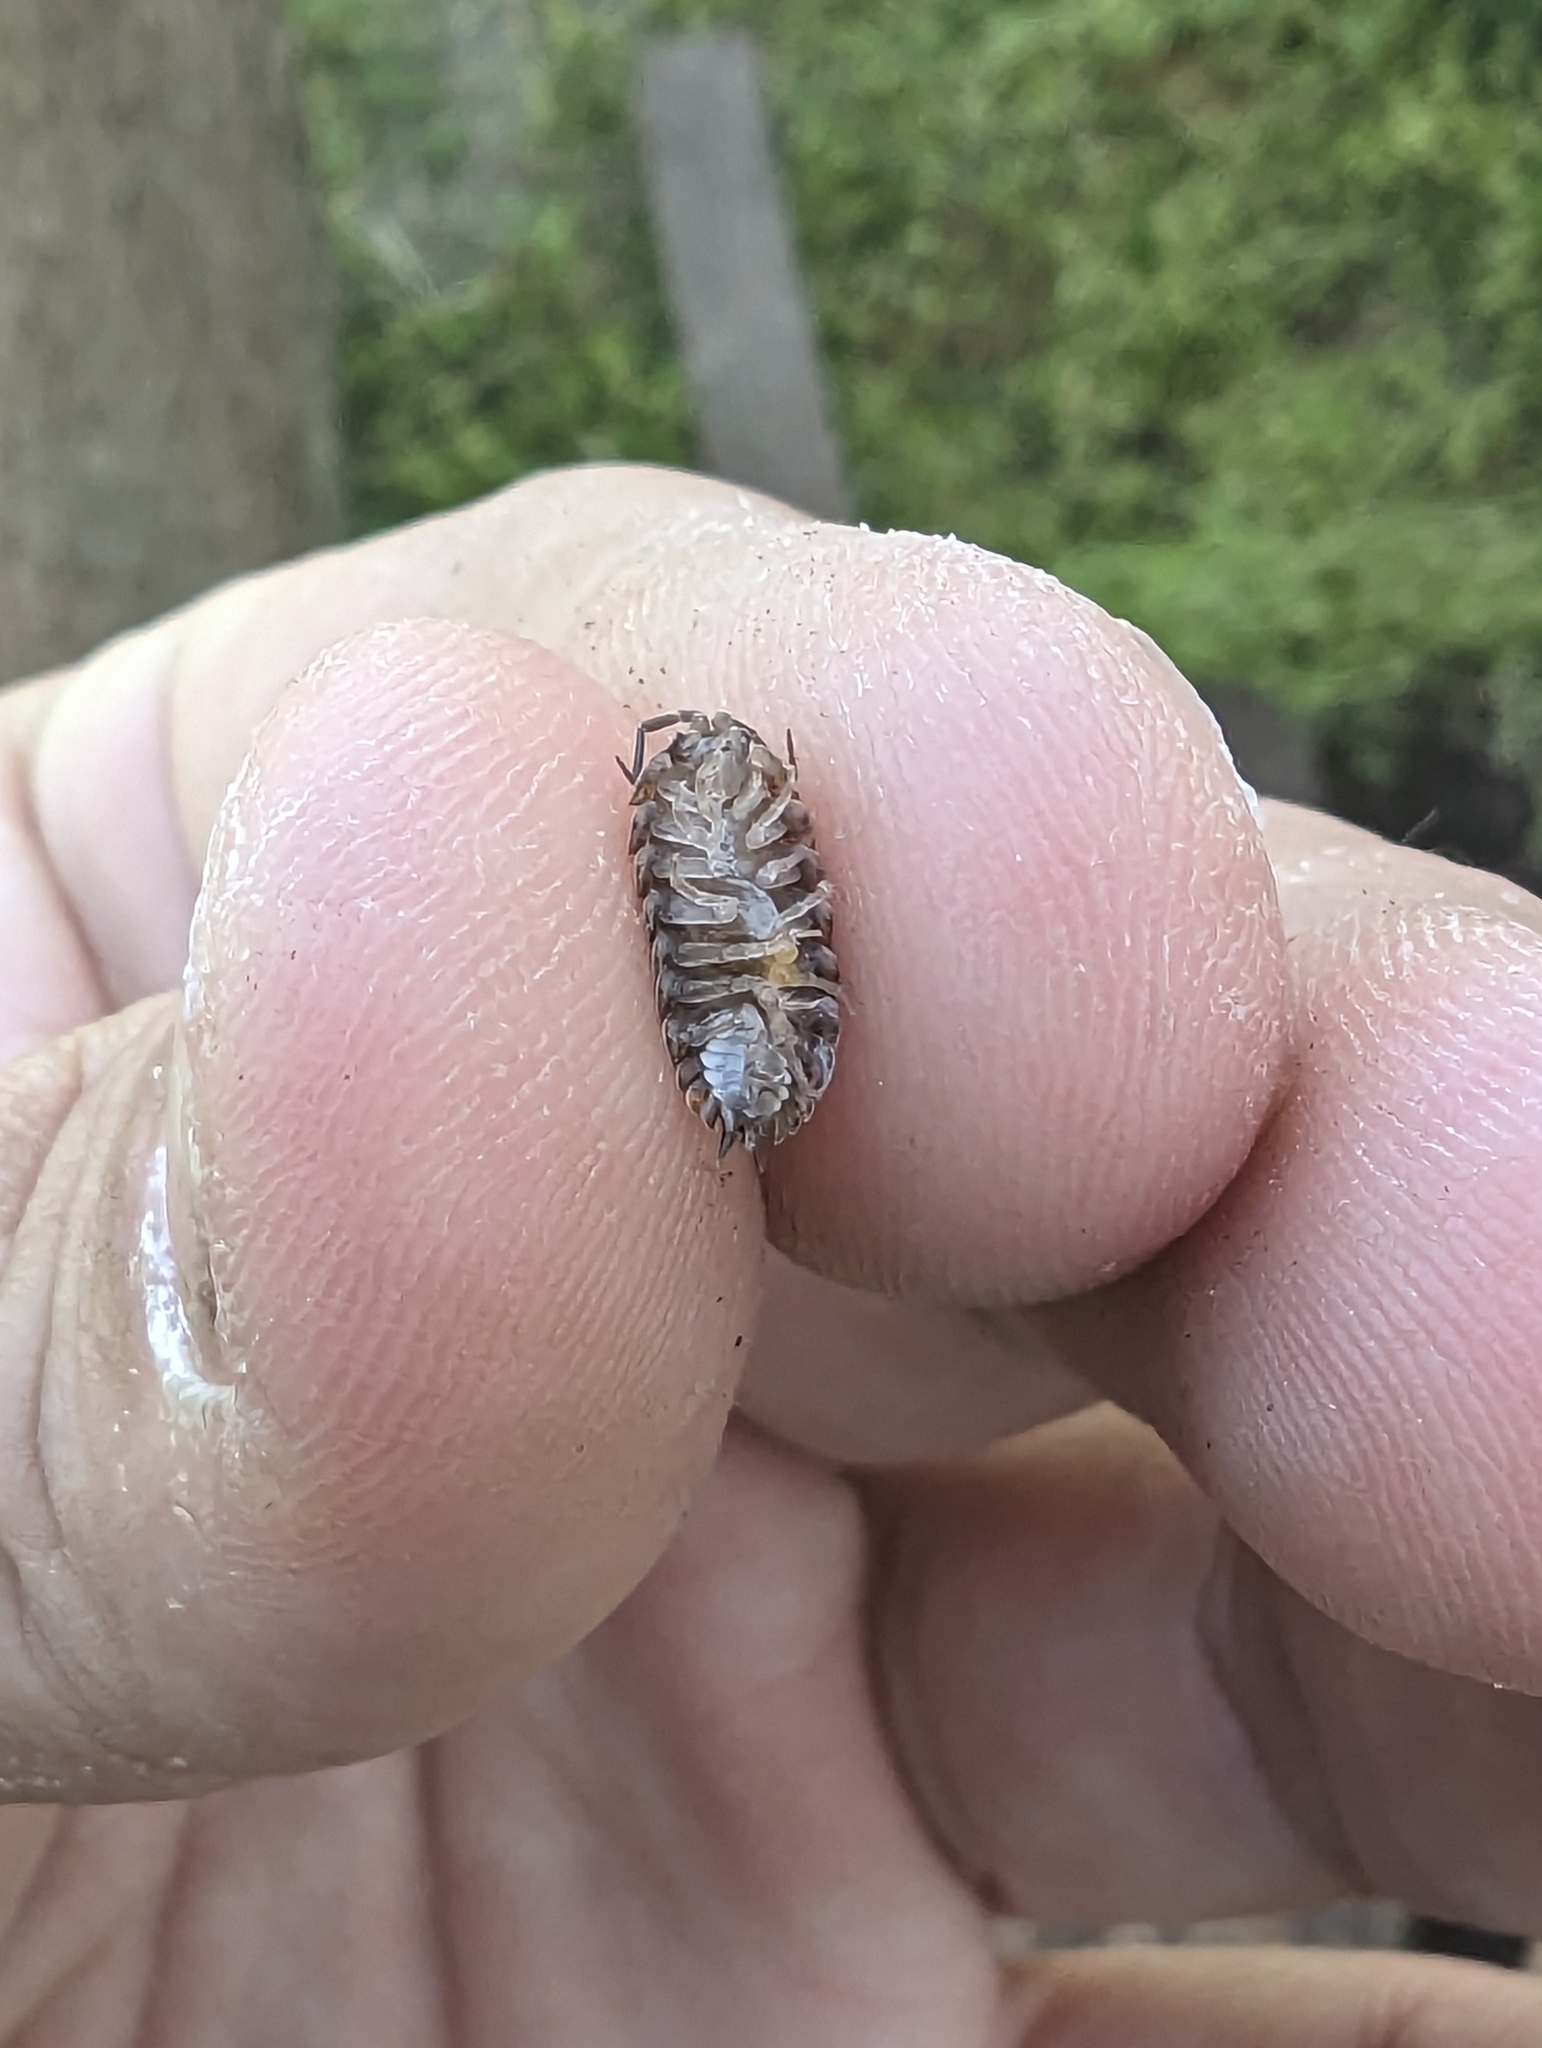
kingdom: Animalia
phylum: Arthropoda
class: Malacostraca
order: Isopoda
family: Trachelipodidae
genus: Trachelipus
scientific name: Trachelipus rathkii
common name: Isopod
